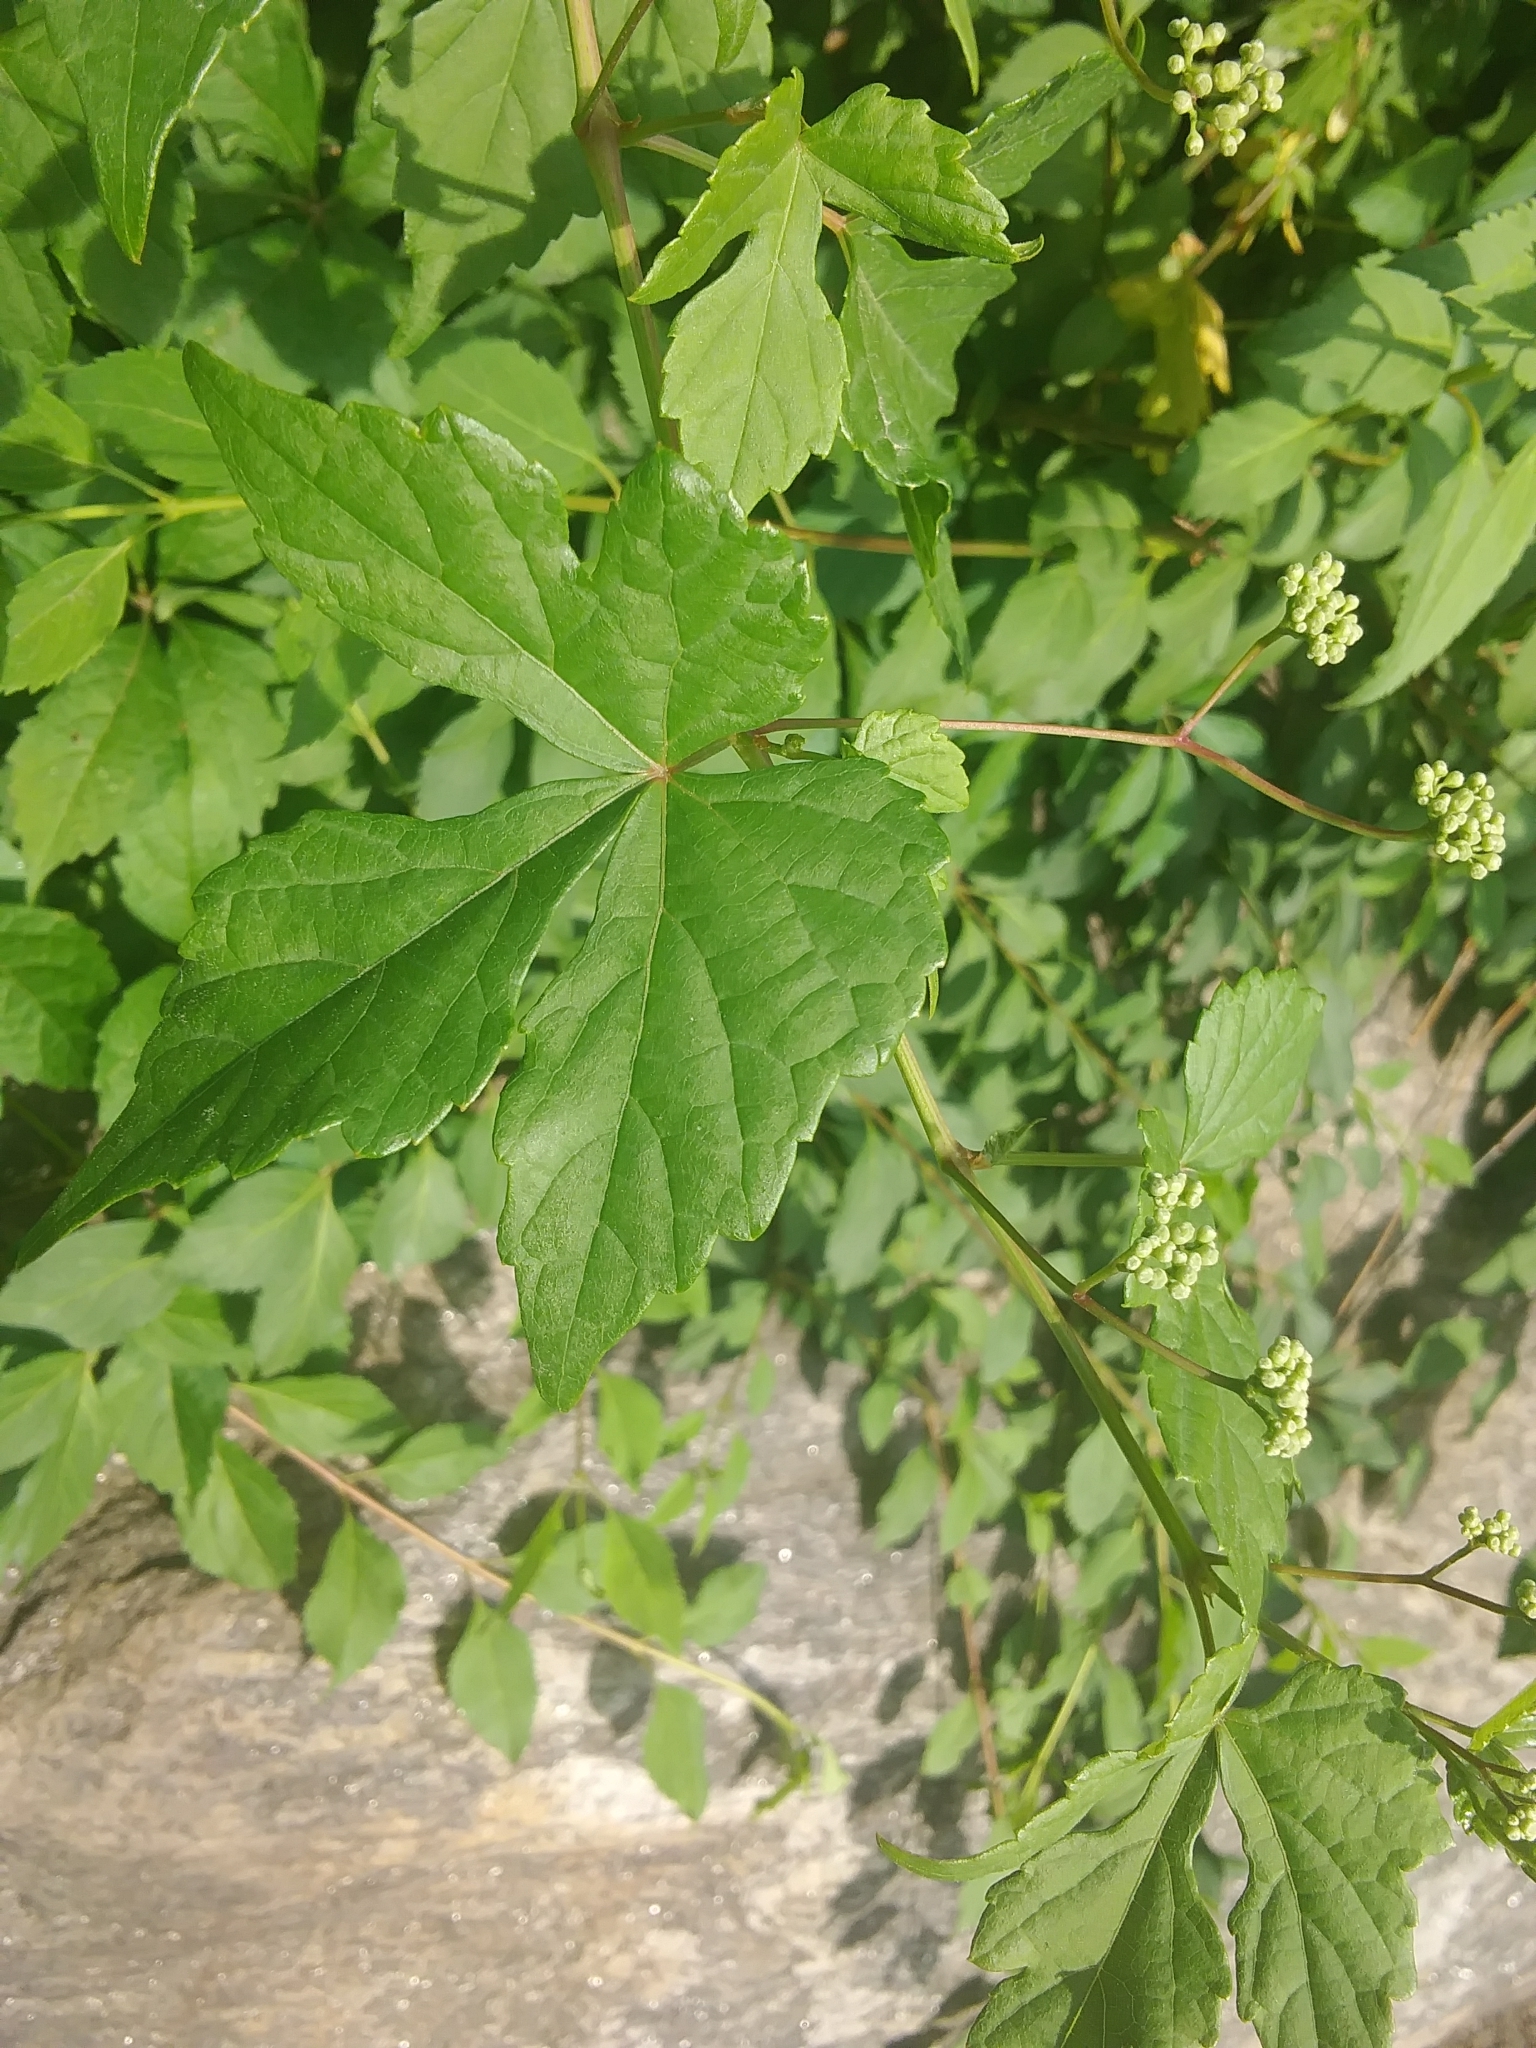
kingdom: Plantae
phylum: Tracheophyta
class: Magnoliopsida
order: Vitales
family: Vitaceae
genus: Ampelopsis
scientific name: Ampelopsis glandulosa
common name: Amur peppervine
